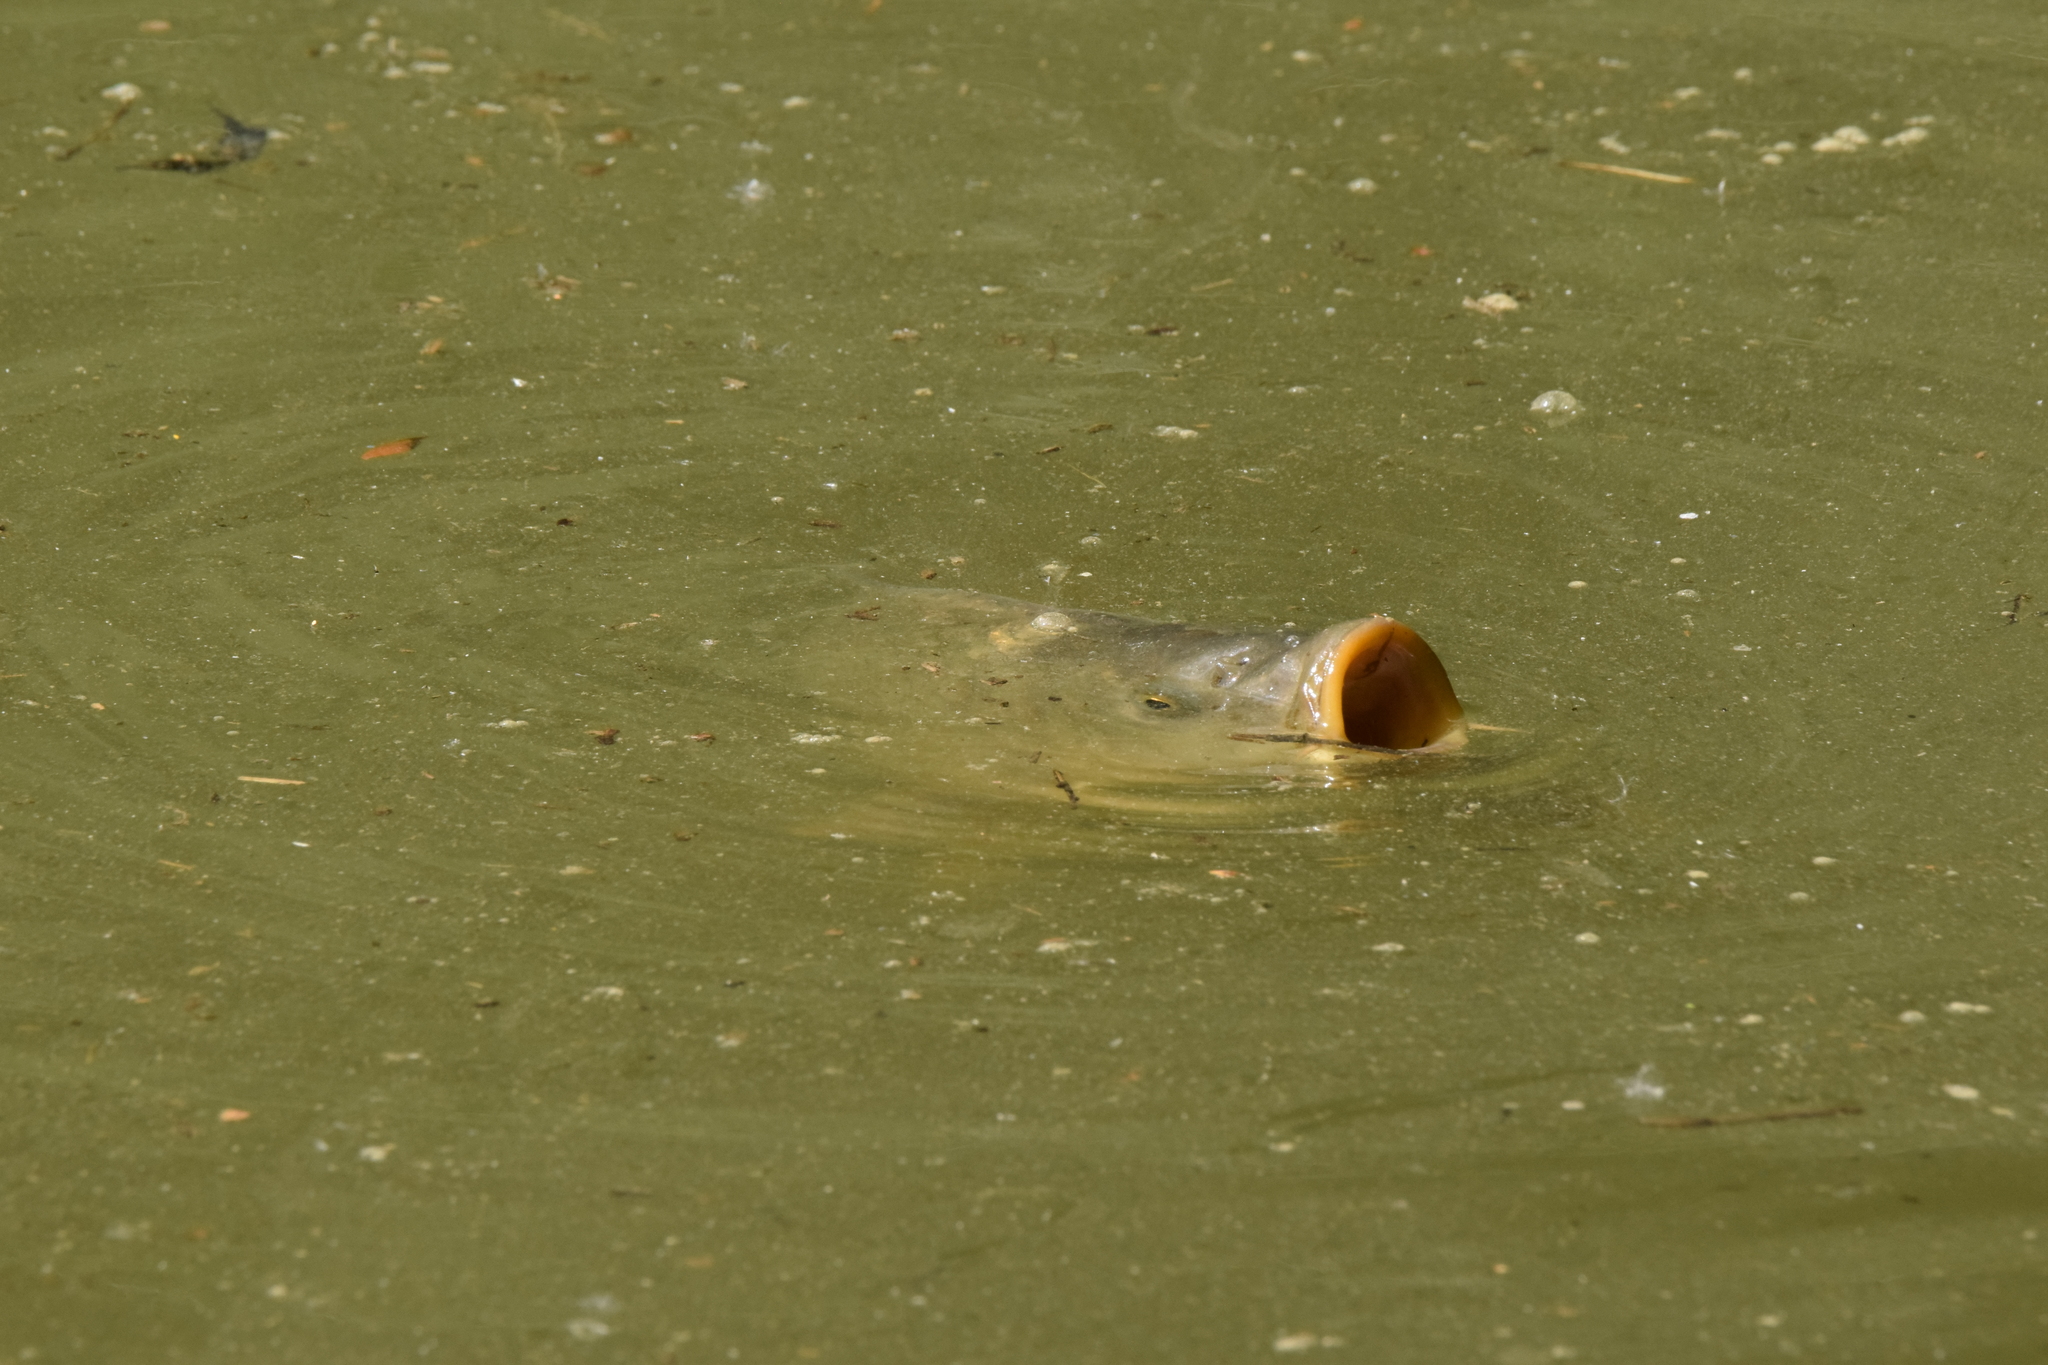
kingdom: Animalia
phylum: Chordata
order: Cypriniformes
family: Cyprinidae
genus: Cyprinus
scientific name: Cyprinus carpio
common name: Common carp
